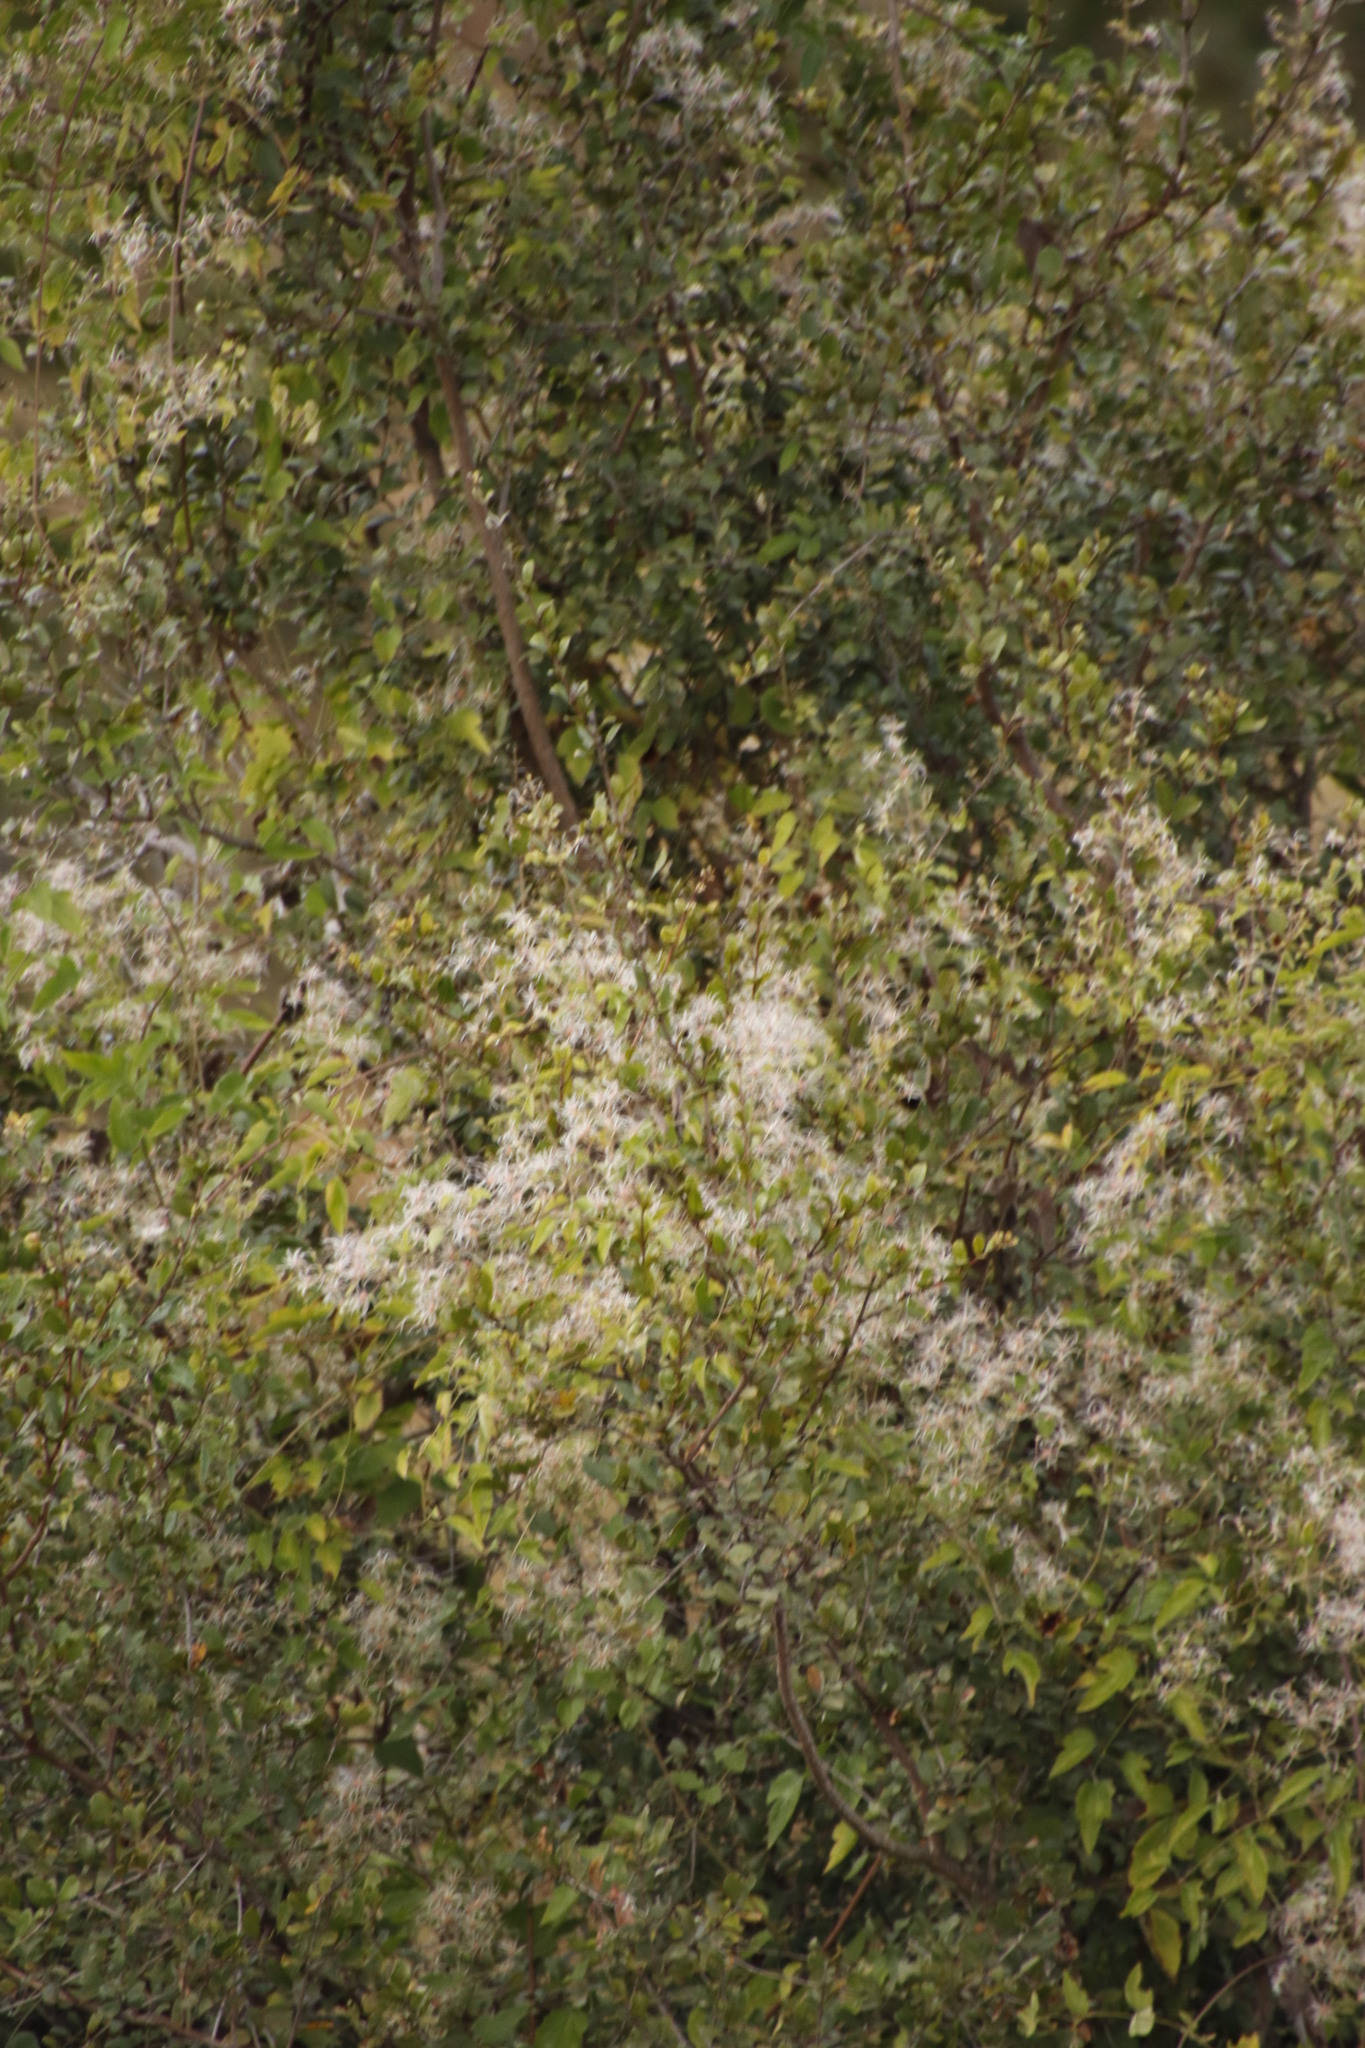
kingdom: Plantae
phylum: Tracheophyta
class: Magnoliopsida
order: Ranunculales
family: Ranunculaceae
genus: Clematis
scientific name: Clematis brachiata
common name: Traveler's-joy
